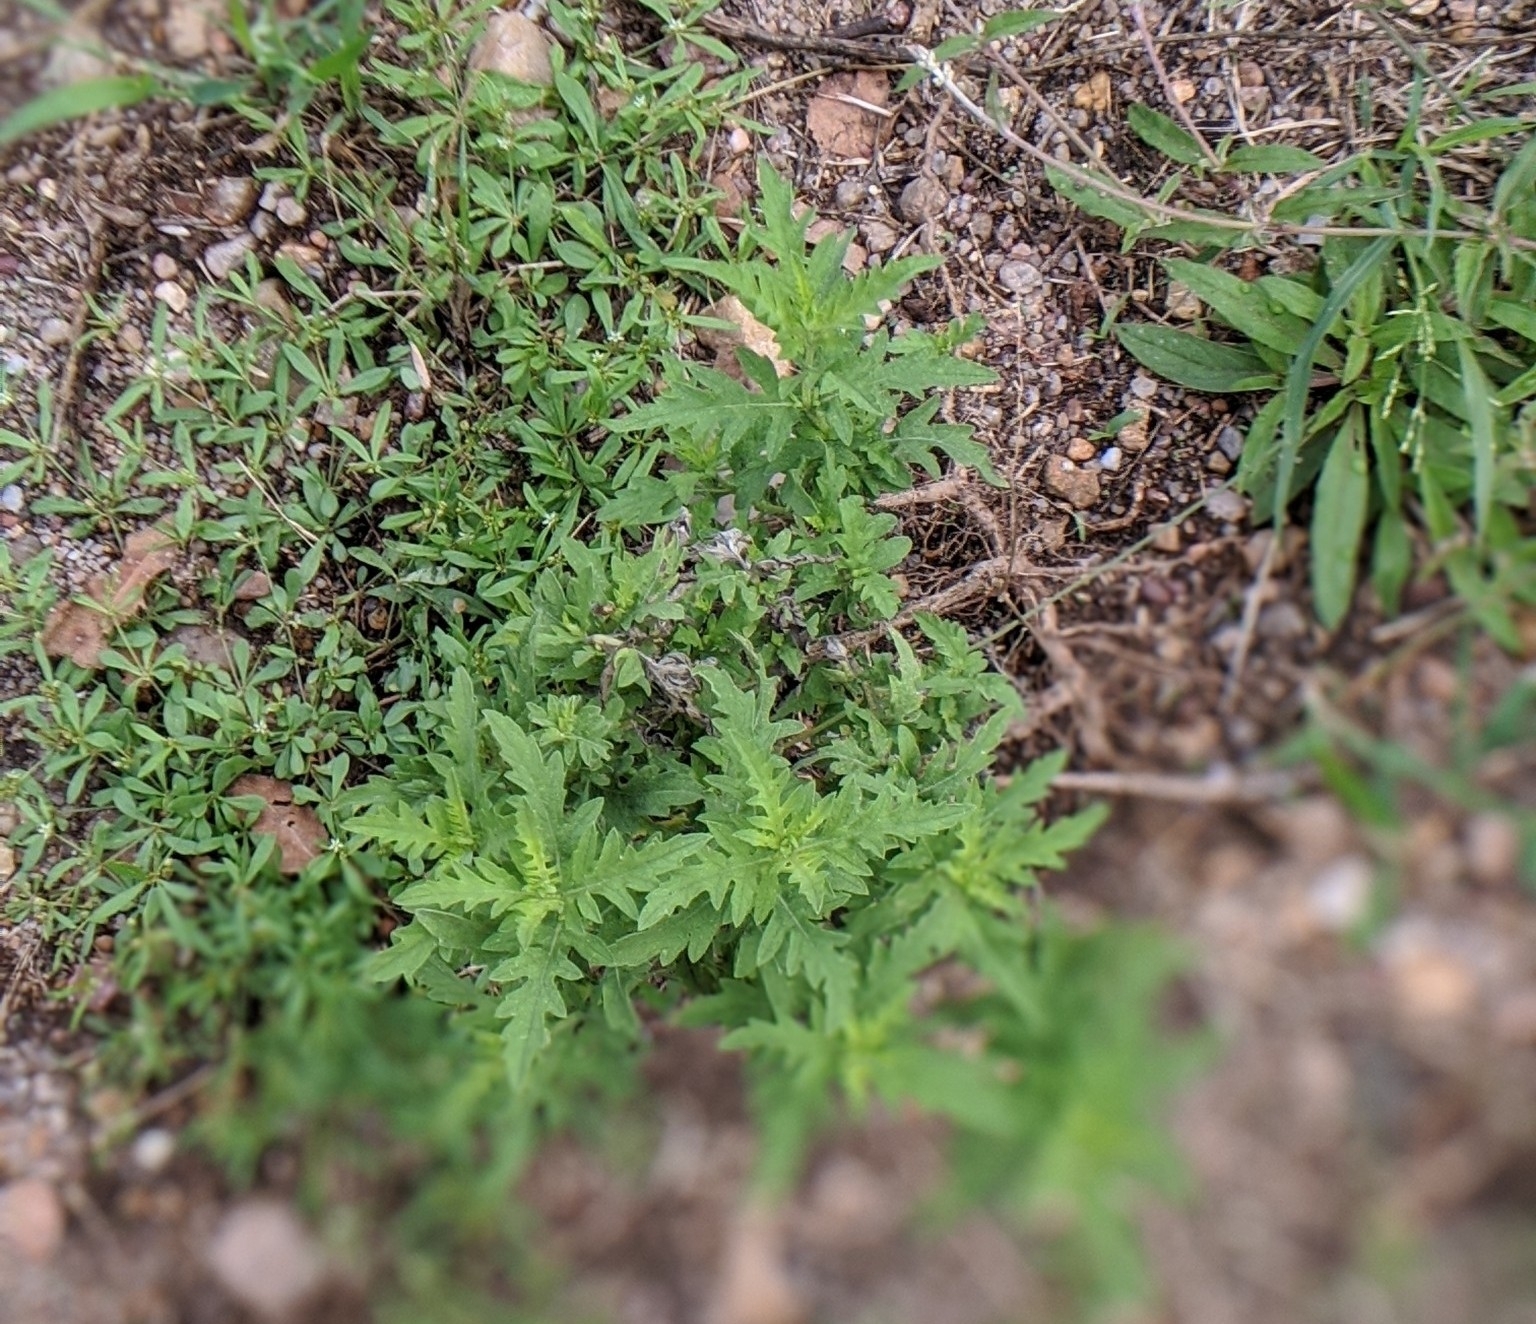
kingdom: Plantae
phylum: Tracheophyta
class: Magnoliopsida
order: Asterales
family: Asteraceae
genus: Ambrosia
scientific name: Ambrosia psilostachya
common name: Perennial ragweed
